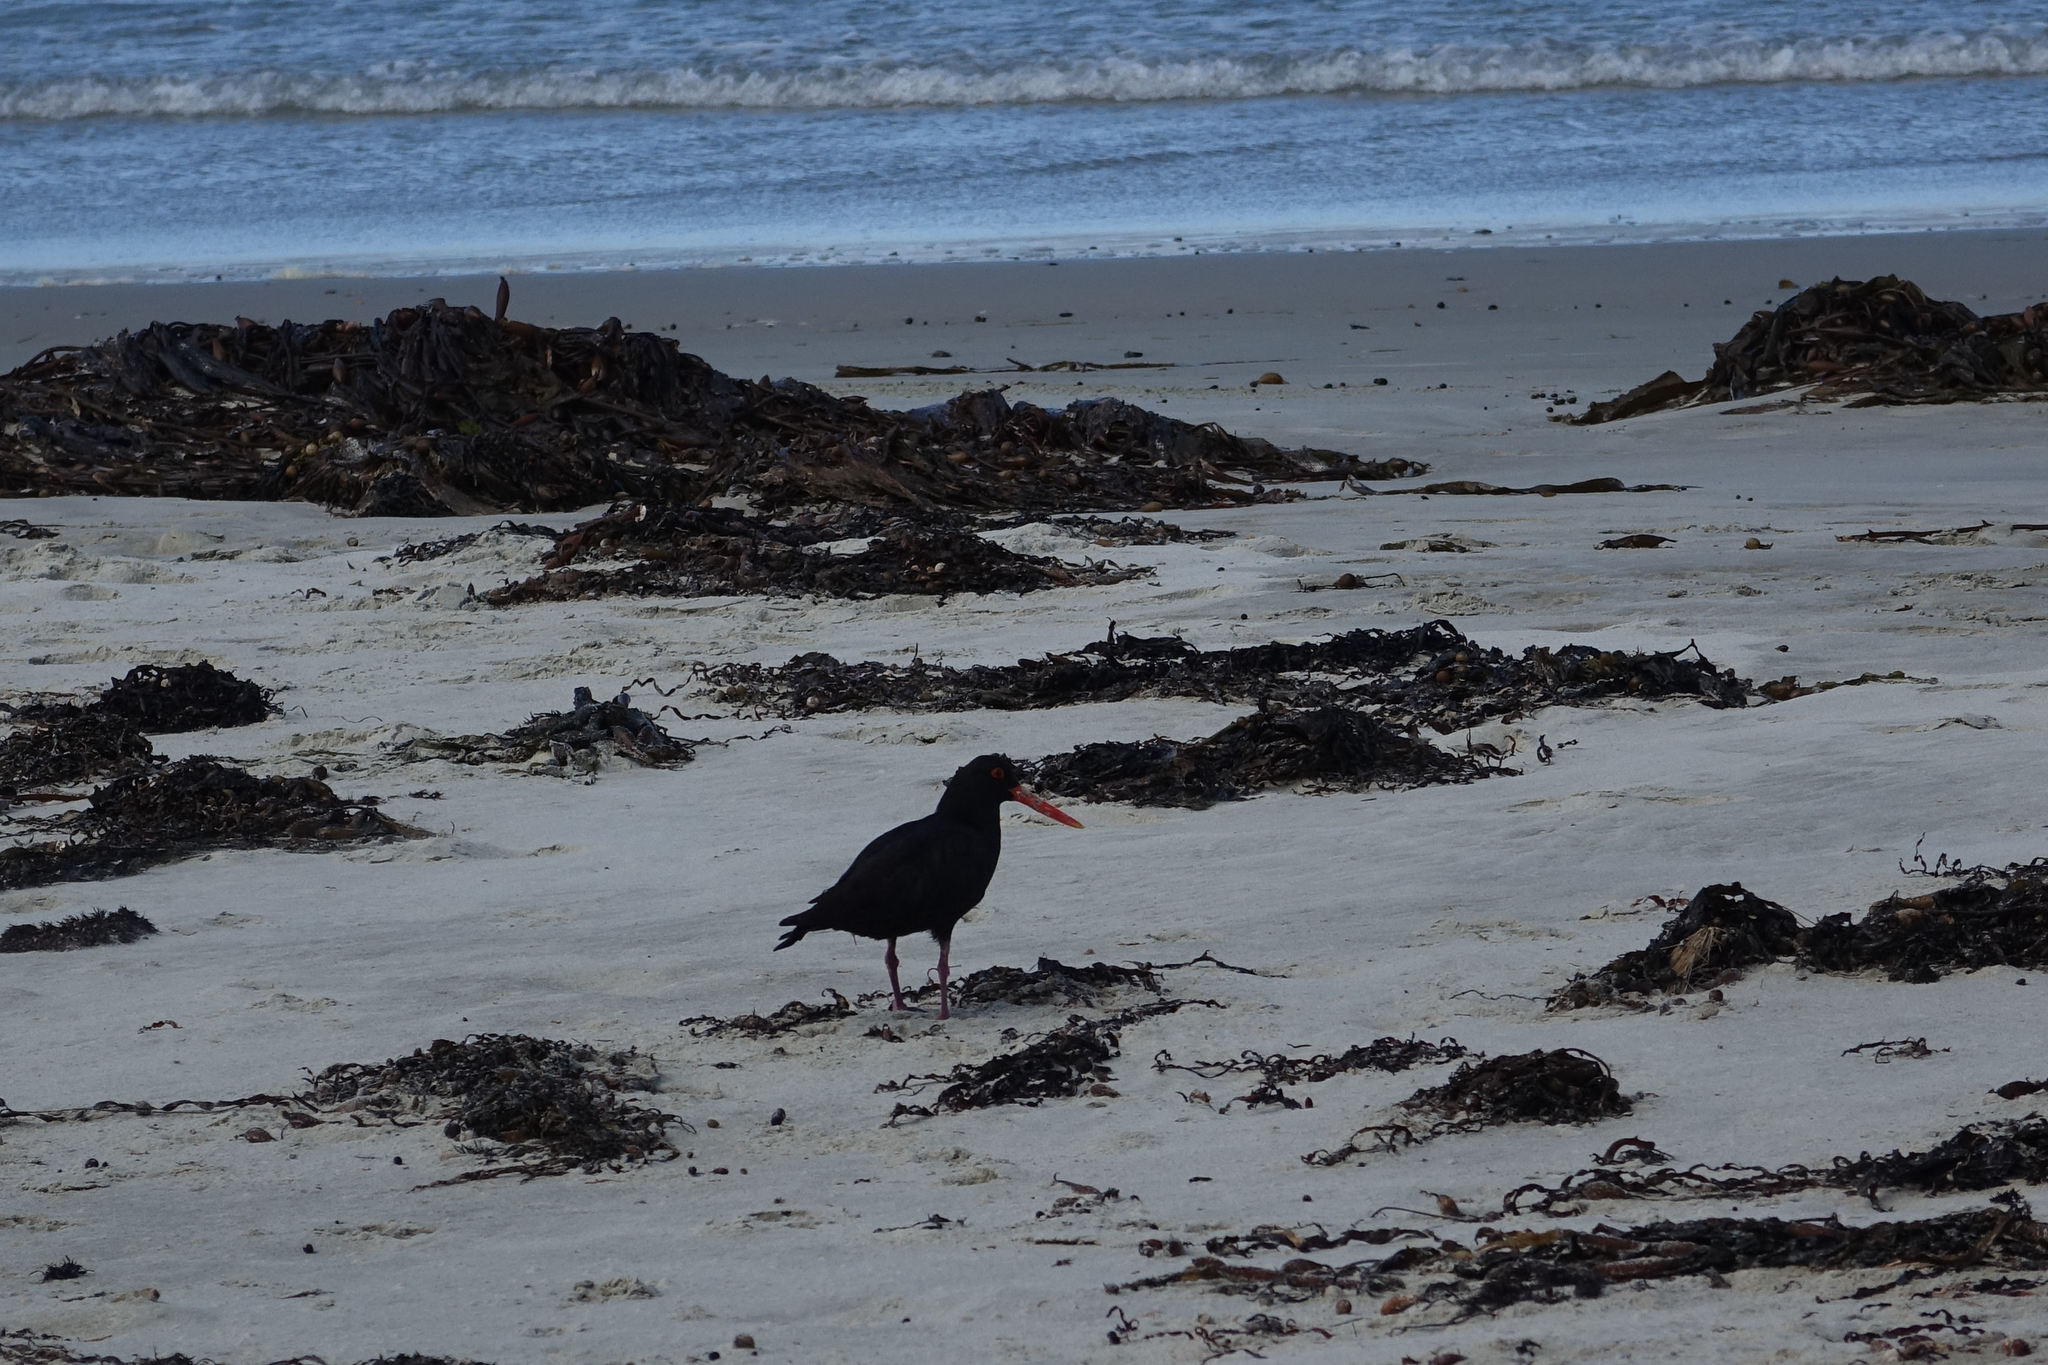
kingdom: Animalia
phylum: Chordata
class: Aves
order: Charadriiformes
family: Haematopodidae
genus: Haematopus
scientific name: Haematopus unicolor
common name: Variable oystercatcher
